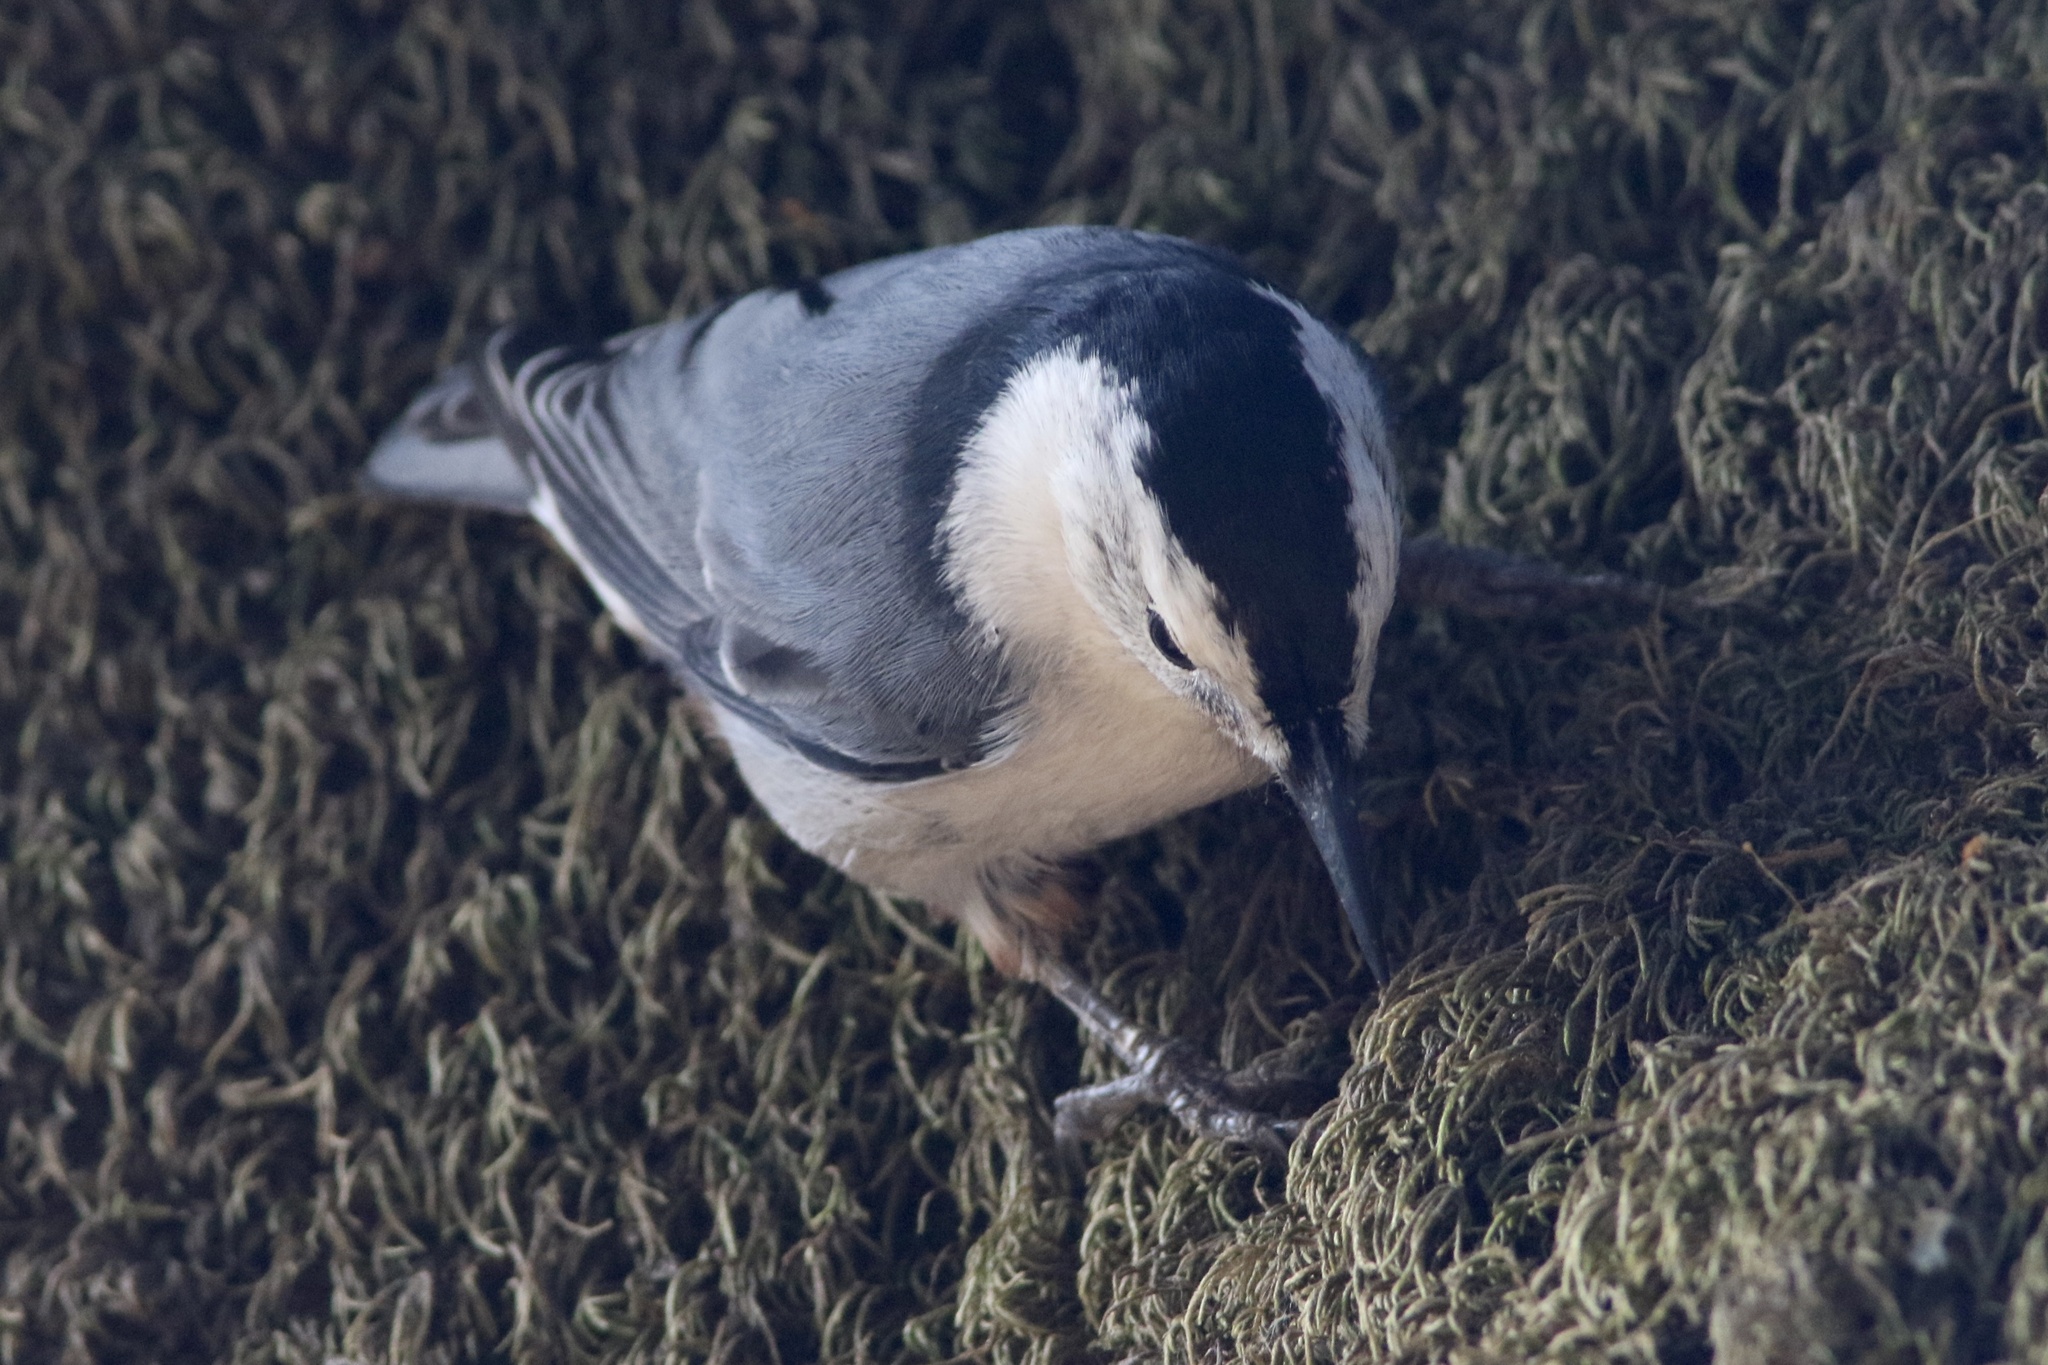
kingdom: Animalia
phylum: Chordata
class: Aves
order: Passeriformes
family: Sittidae
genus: Sitta
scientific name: Sitta carolinensis
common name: White-breasted nuthatch
